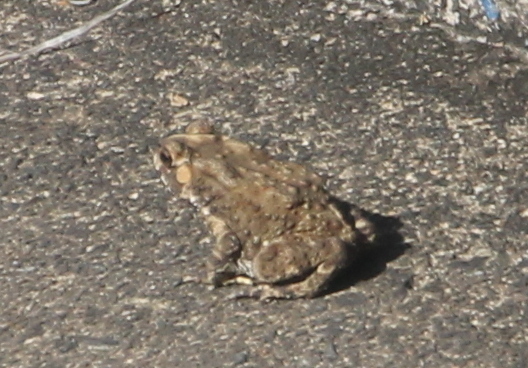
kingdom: Animalia
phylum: Chordata
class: Amphibia
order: Anura
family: Bufonidae
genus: Duttaphrynus
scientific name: Duttaphrynus melanostictus
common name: Common sunda toad
